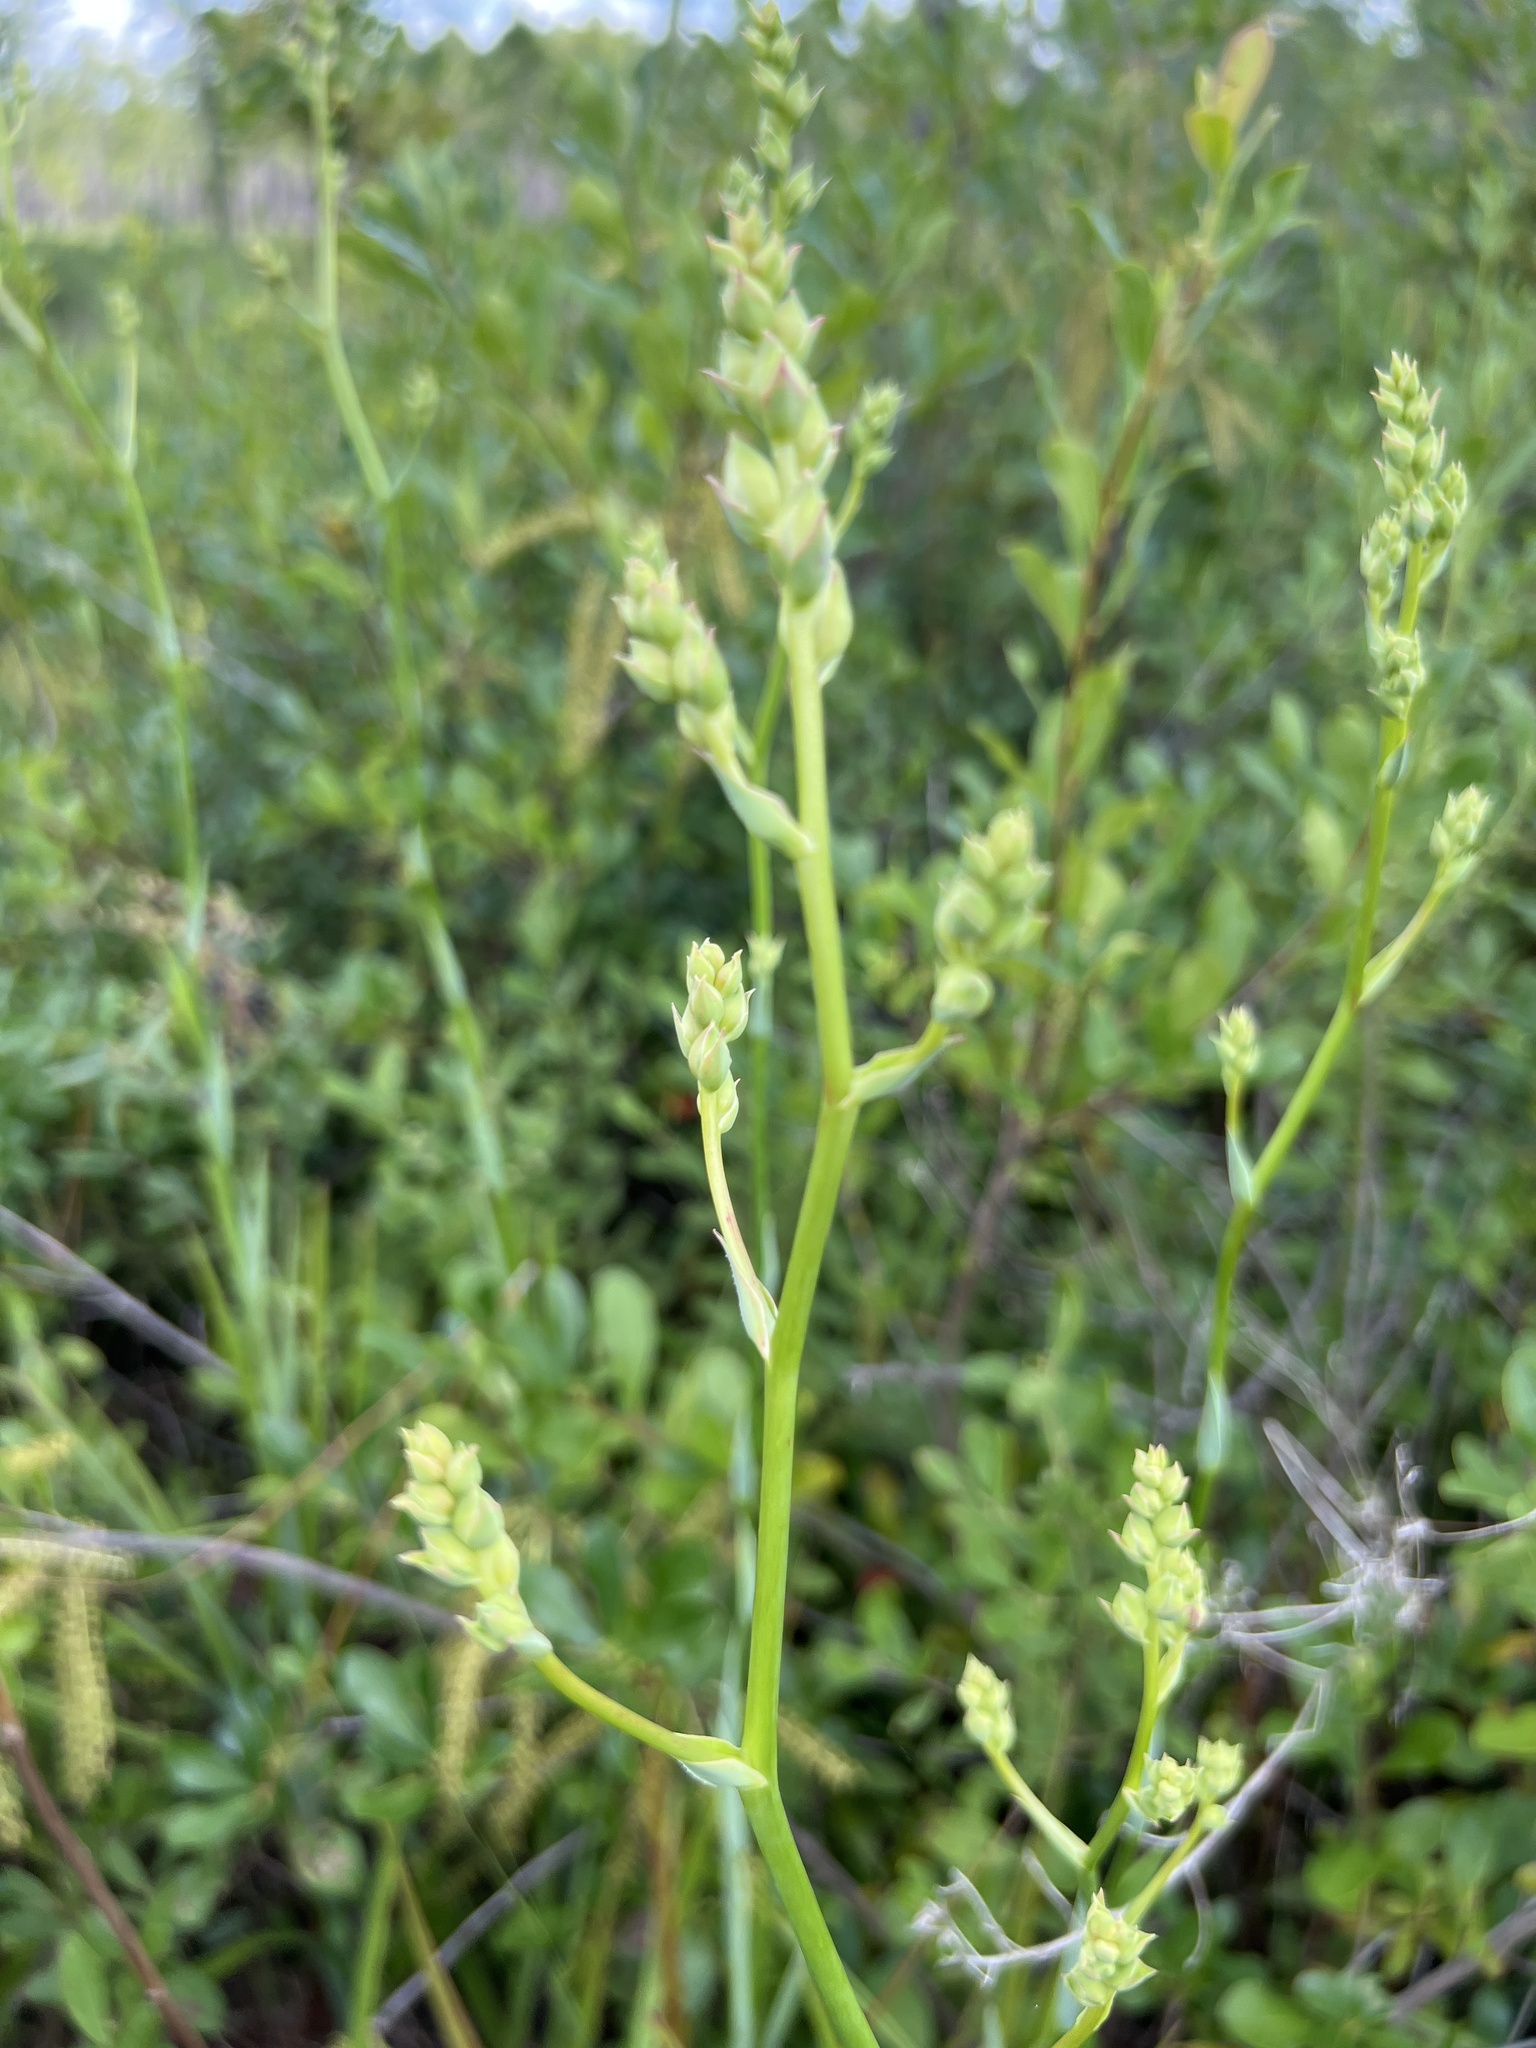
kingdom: Plantae
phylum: Tracheophyta
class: Liliopsida
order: Liliales
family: Melanthiaceae
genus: Zigadenus
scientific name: Zigadenus glaberrimus
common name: Sandbog death camas
